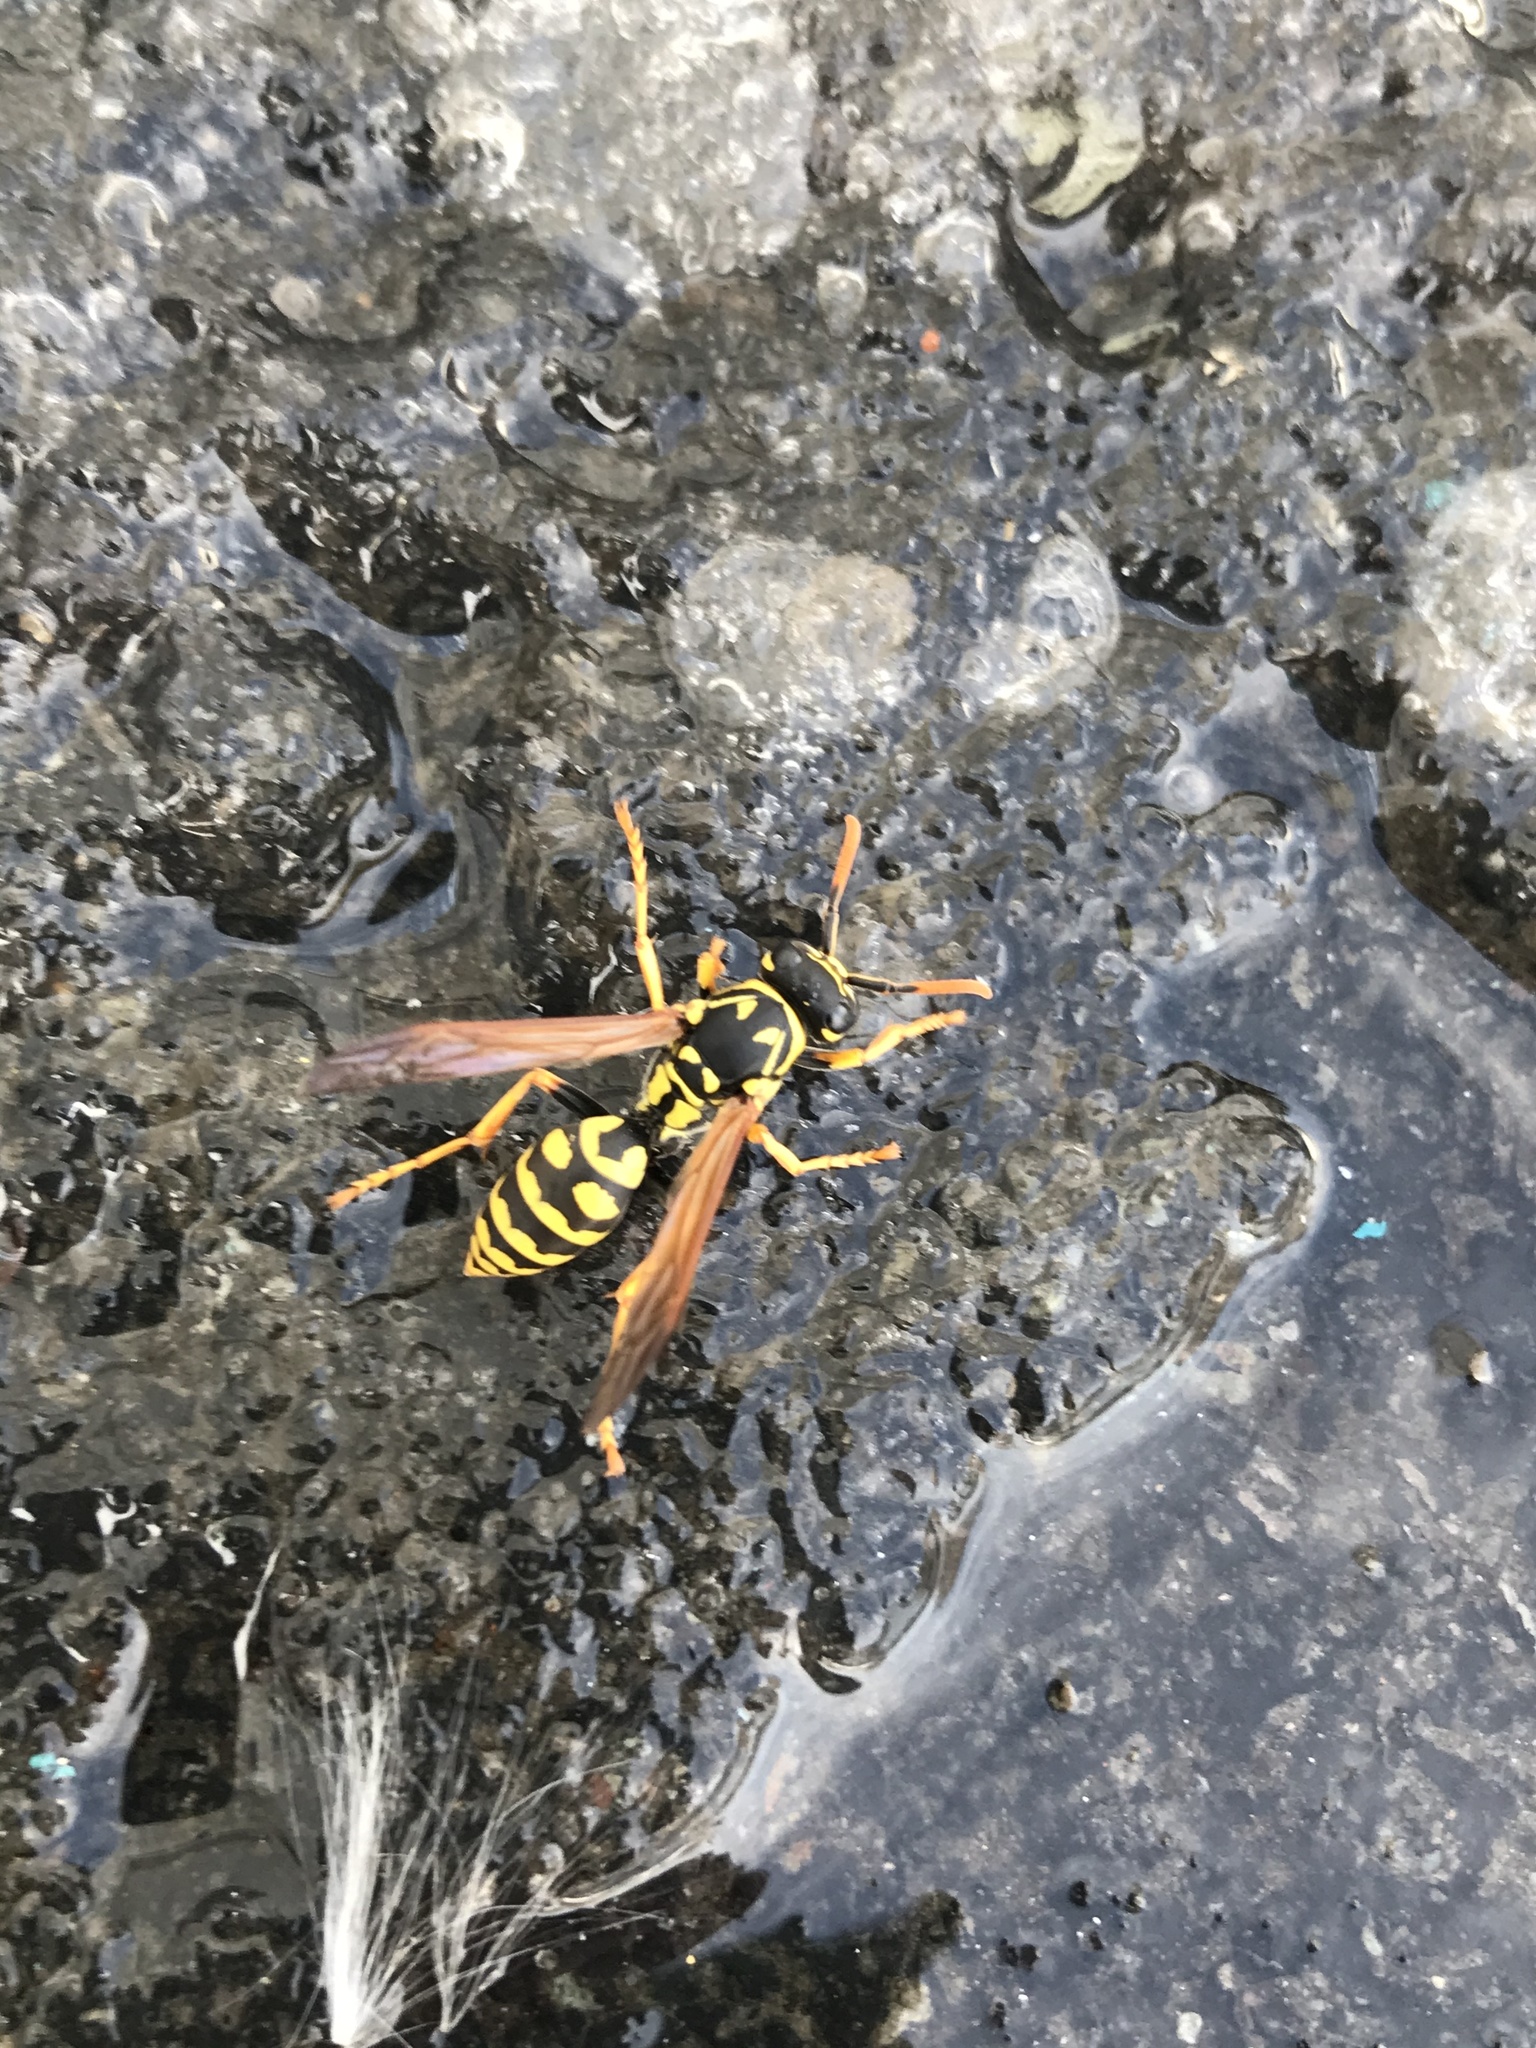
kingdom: Animalia
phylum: Arthropoda
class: Insecta
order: Hymenoptera
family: Eumenidae
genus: Polistes
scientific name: Polistes dominula
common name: Paper wasp
